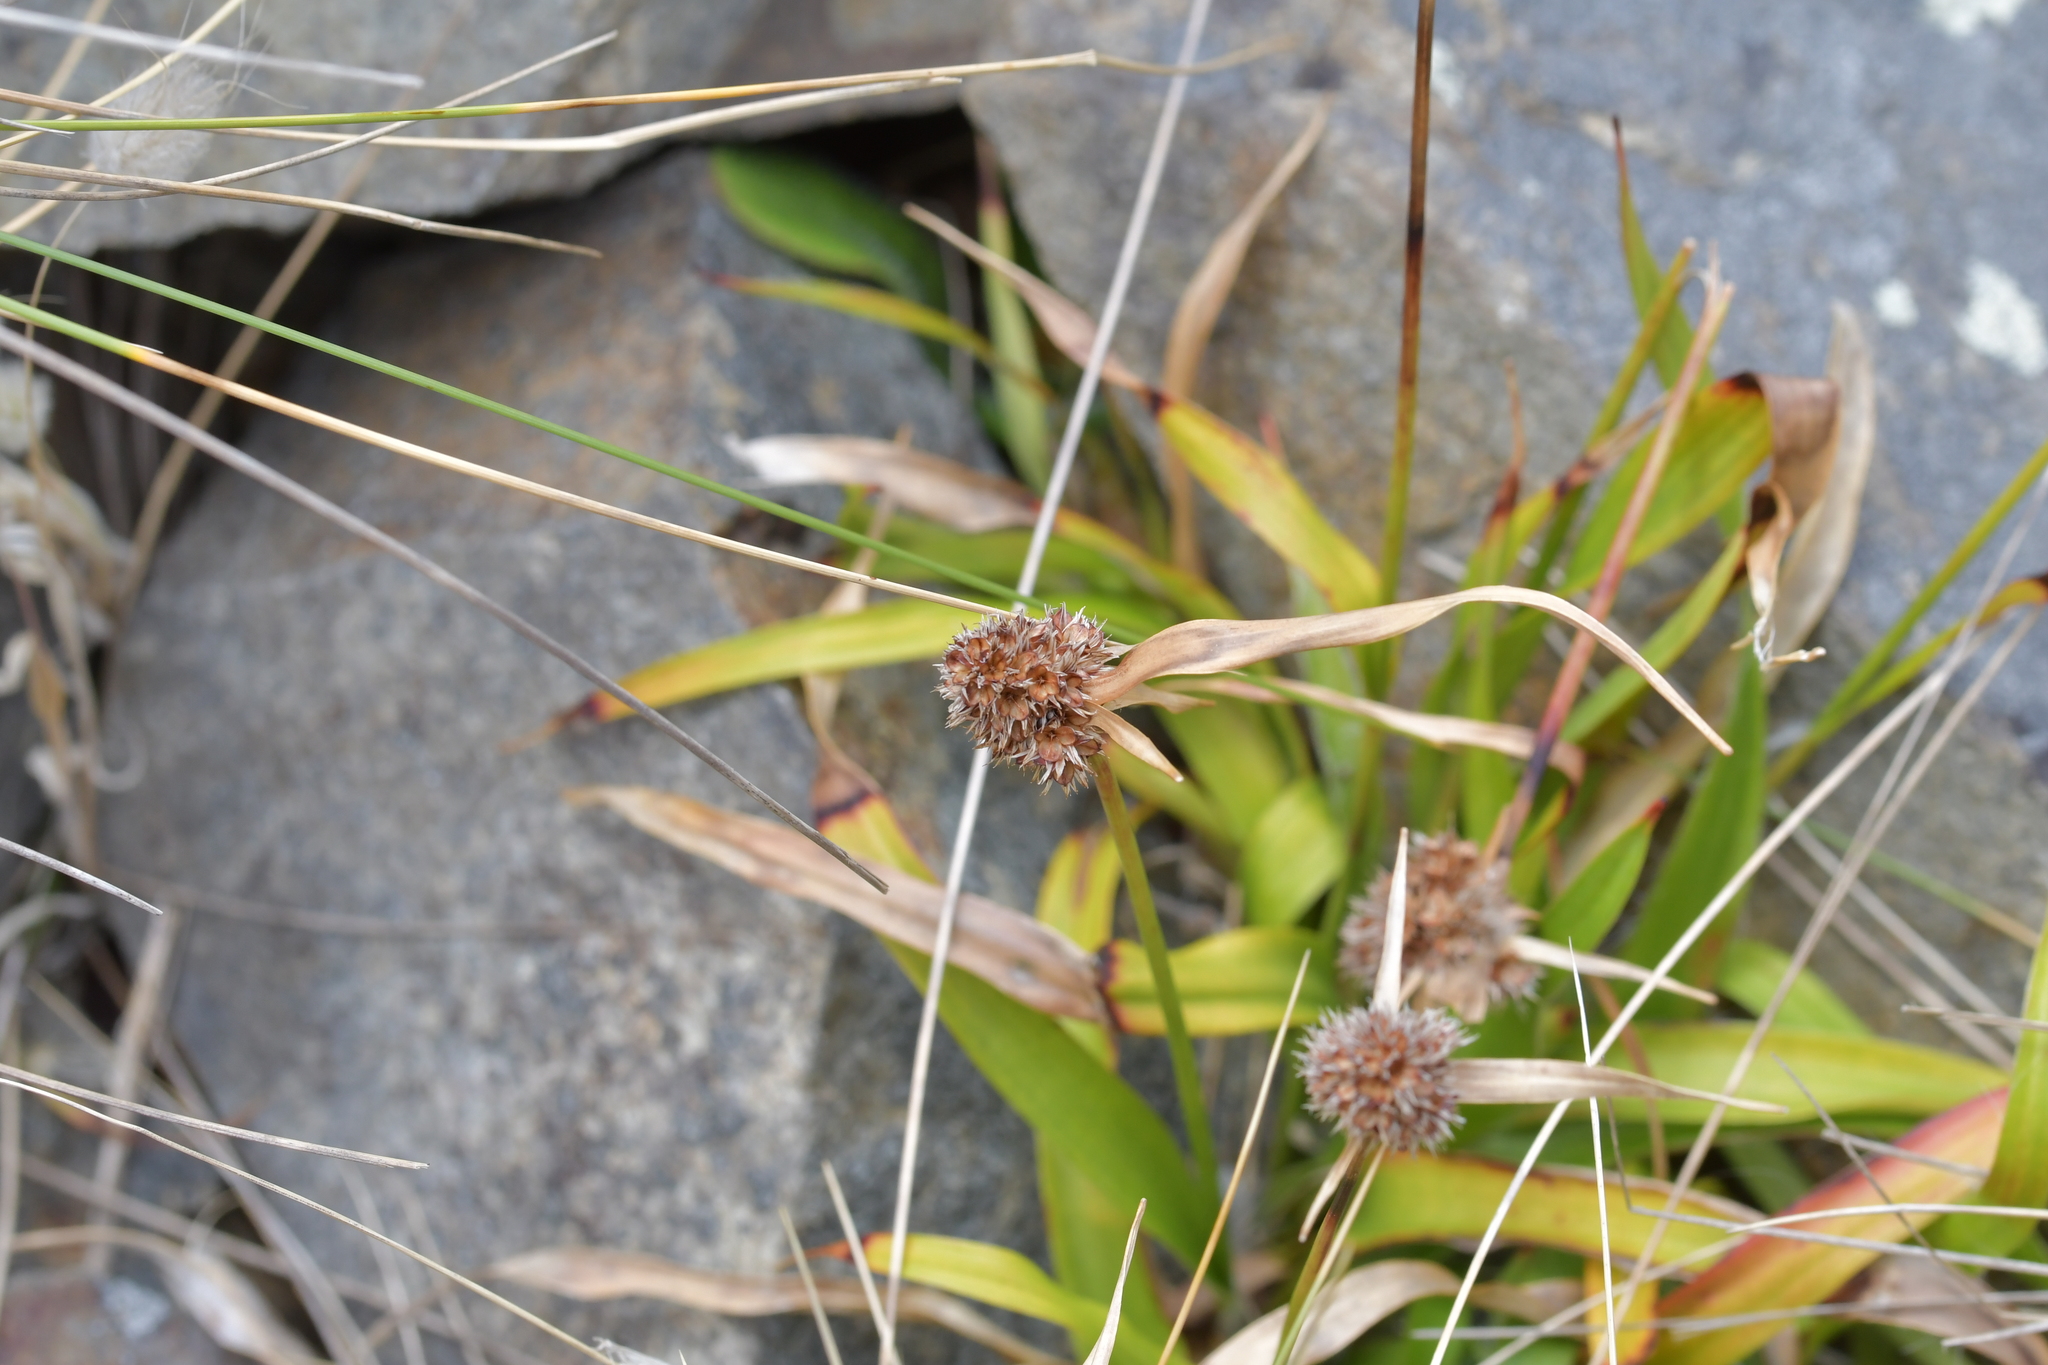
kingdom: Plantae
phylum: Tracheophyta
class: Liliopsida
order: Poales
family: Juncaceae
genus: Luzula
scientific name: Luzula banksiana
